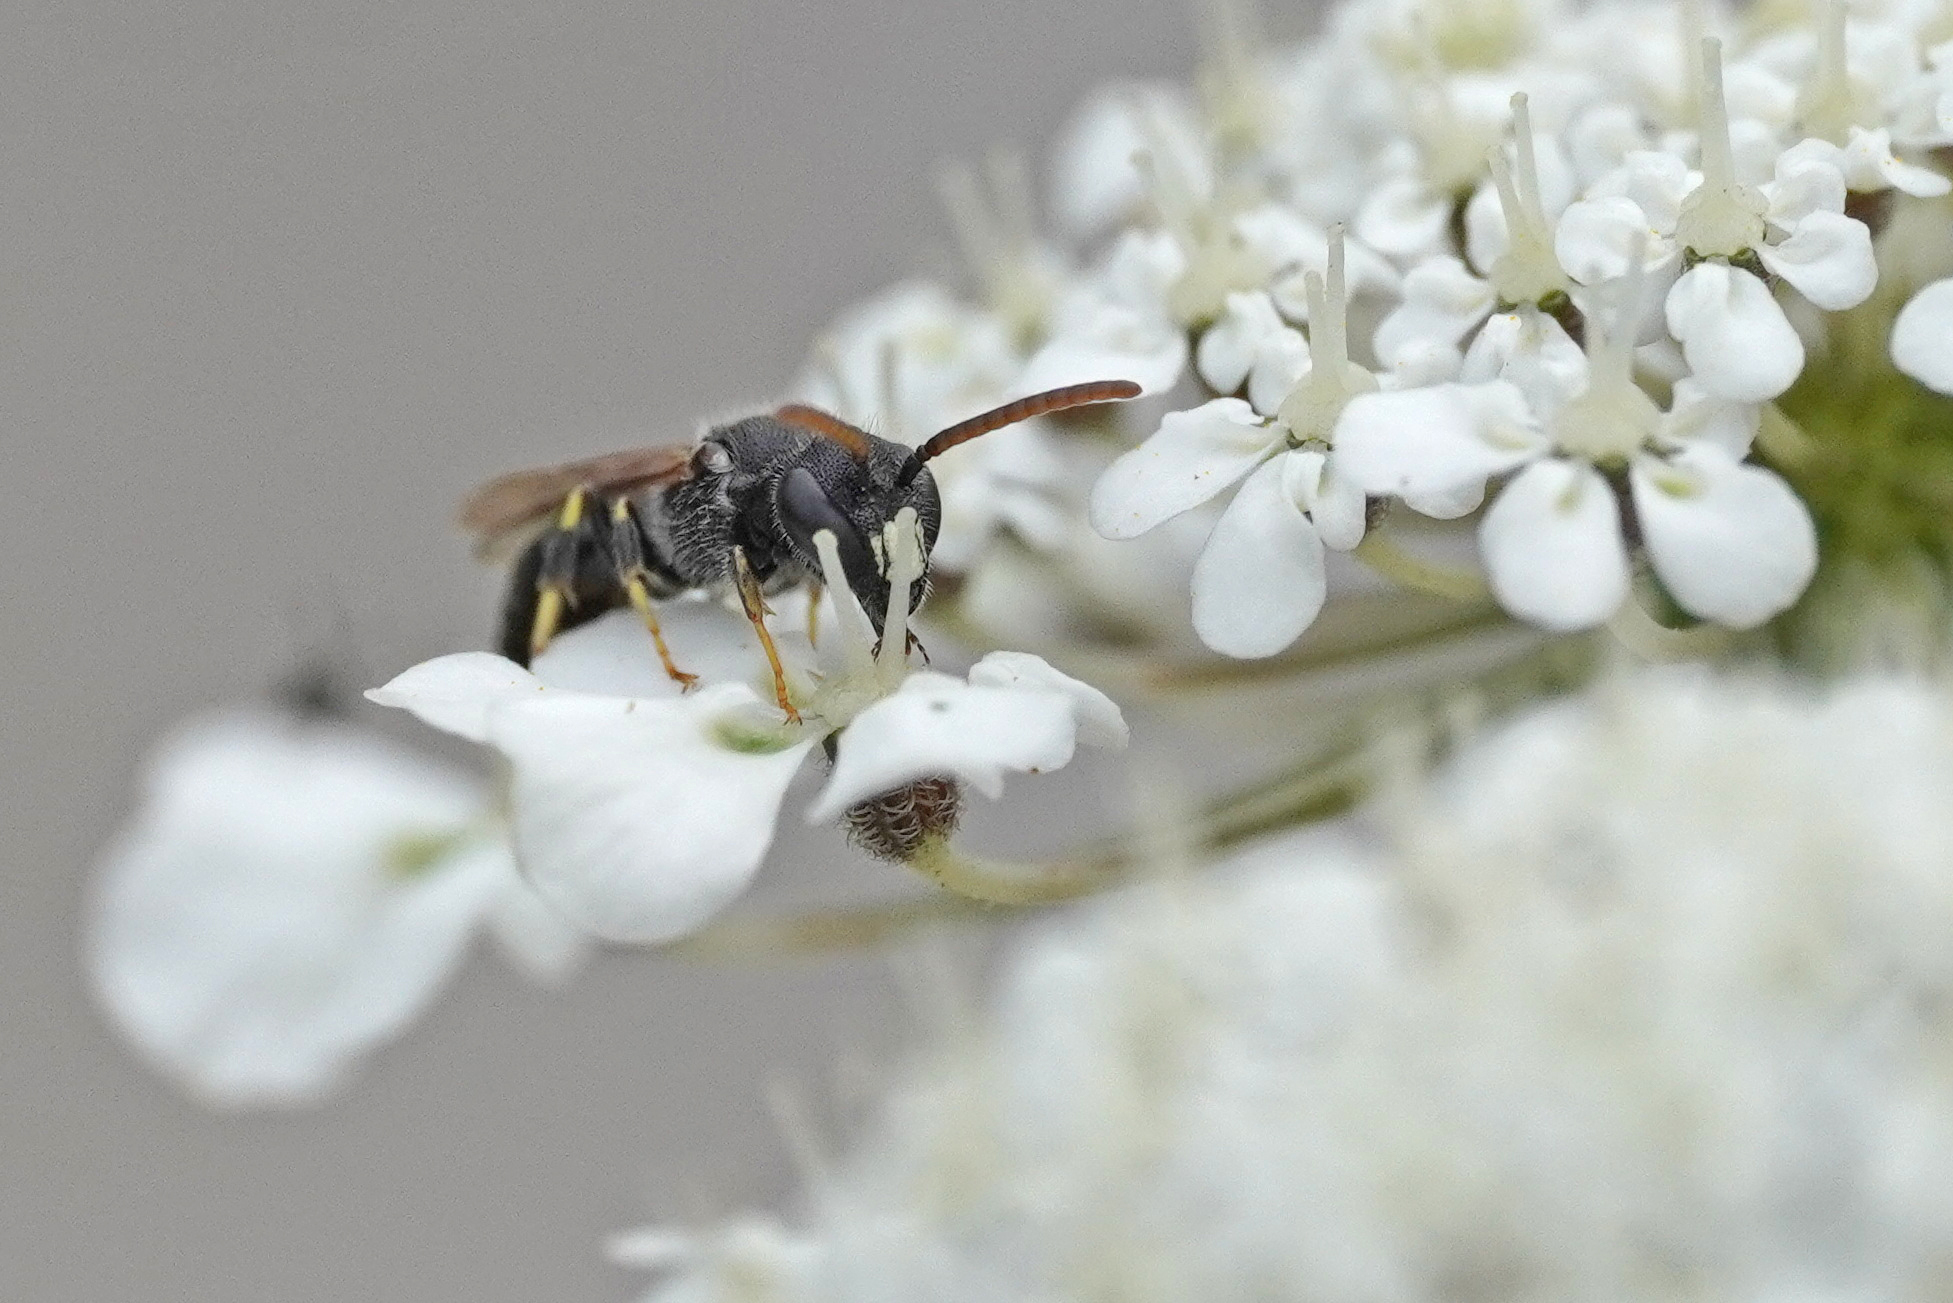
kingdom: Animalia
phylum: Arthropoda
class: Insecta
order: Hymenoptera
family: Colletidae
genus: Hylaeus
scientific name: Hylaeus punctatus
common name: Punctate masked bee
